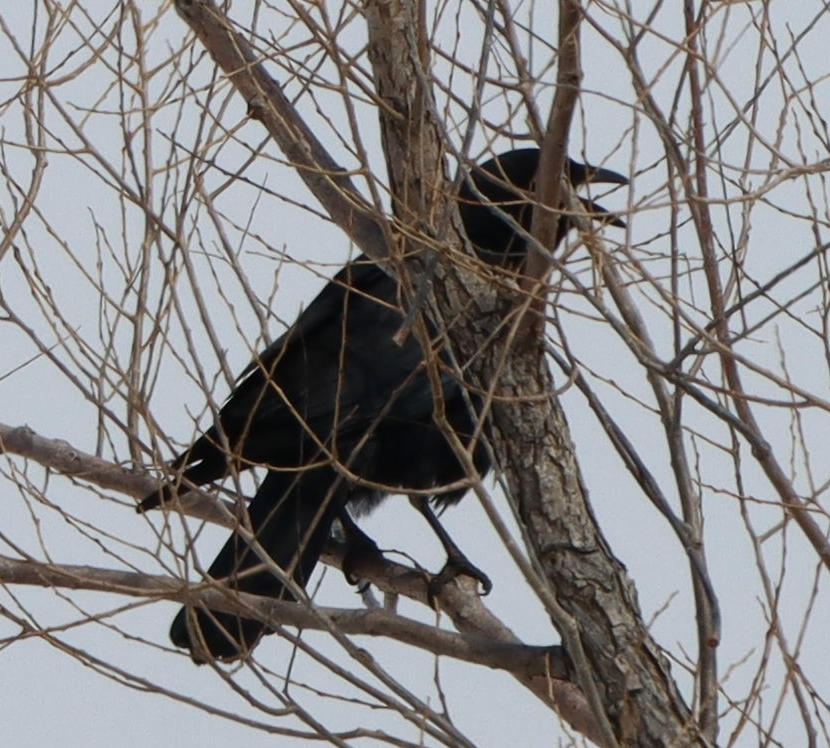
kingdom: Animalia
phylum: Chordata
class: Aves
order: Passeriformes
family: Corvidae
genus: Corvus
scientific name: Corvus corax
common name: Common raven
